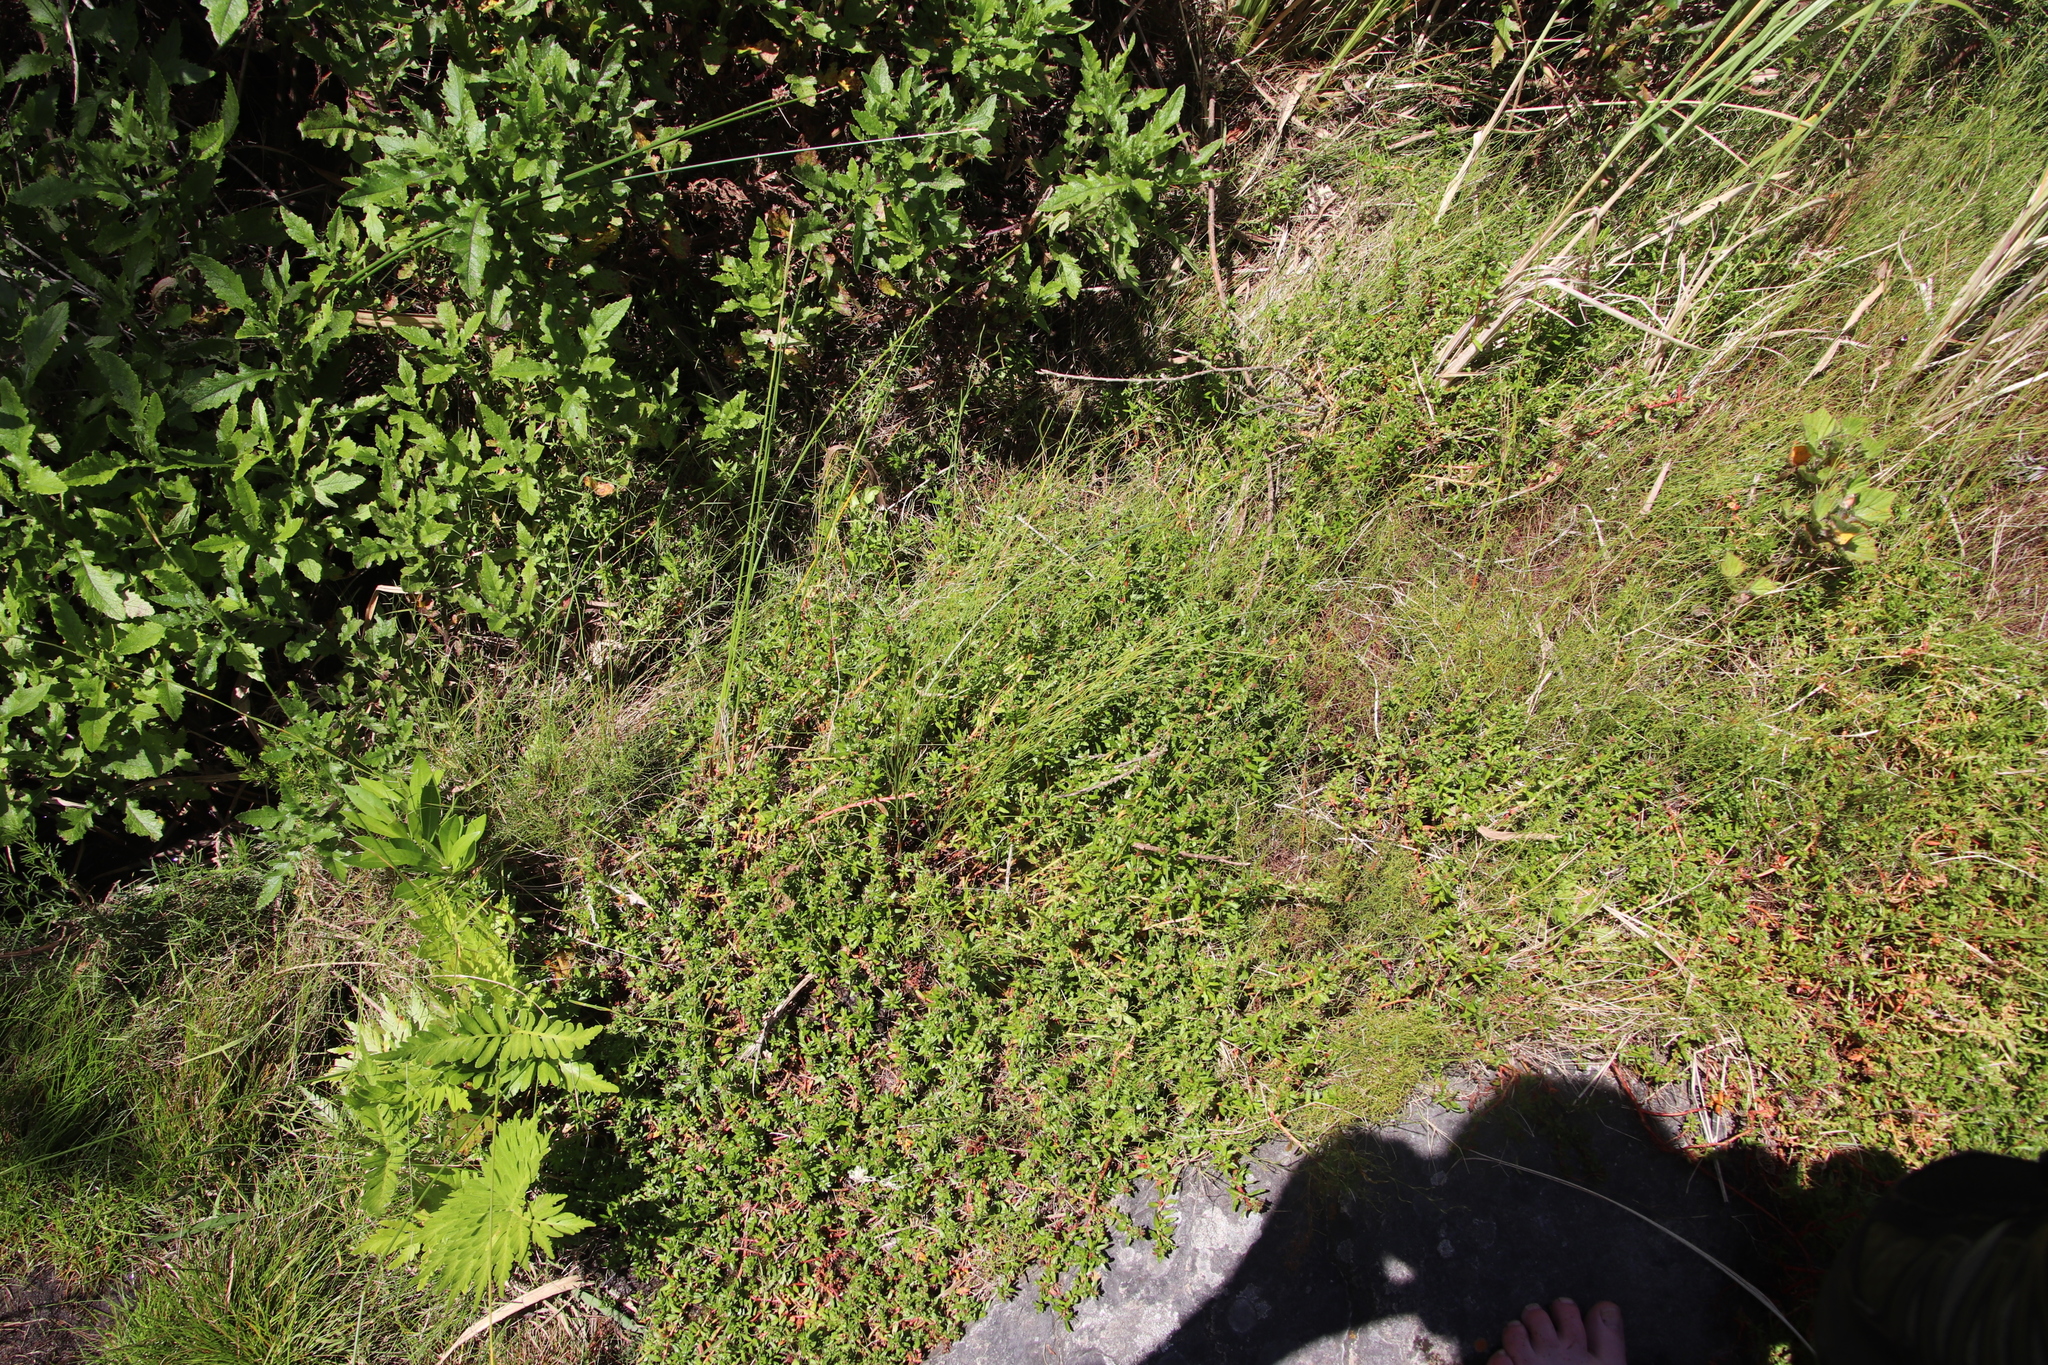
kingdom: Plantae
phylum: Tracheophyta
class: Magnoliopsida
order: Saxifragales
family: Haloragaceae
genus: Laurembergia
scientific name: Laurembergia repens
